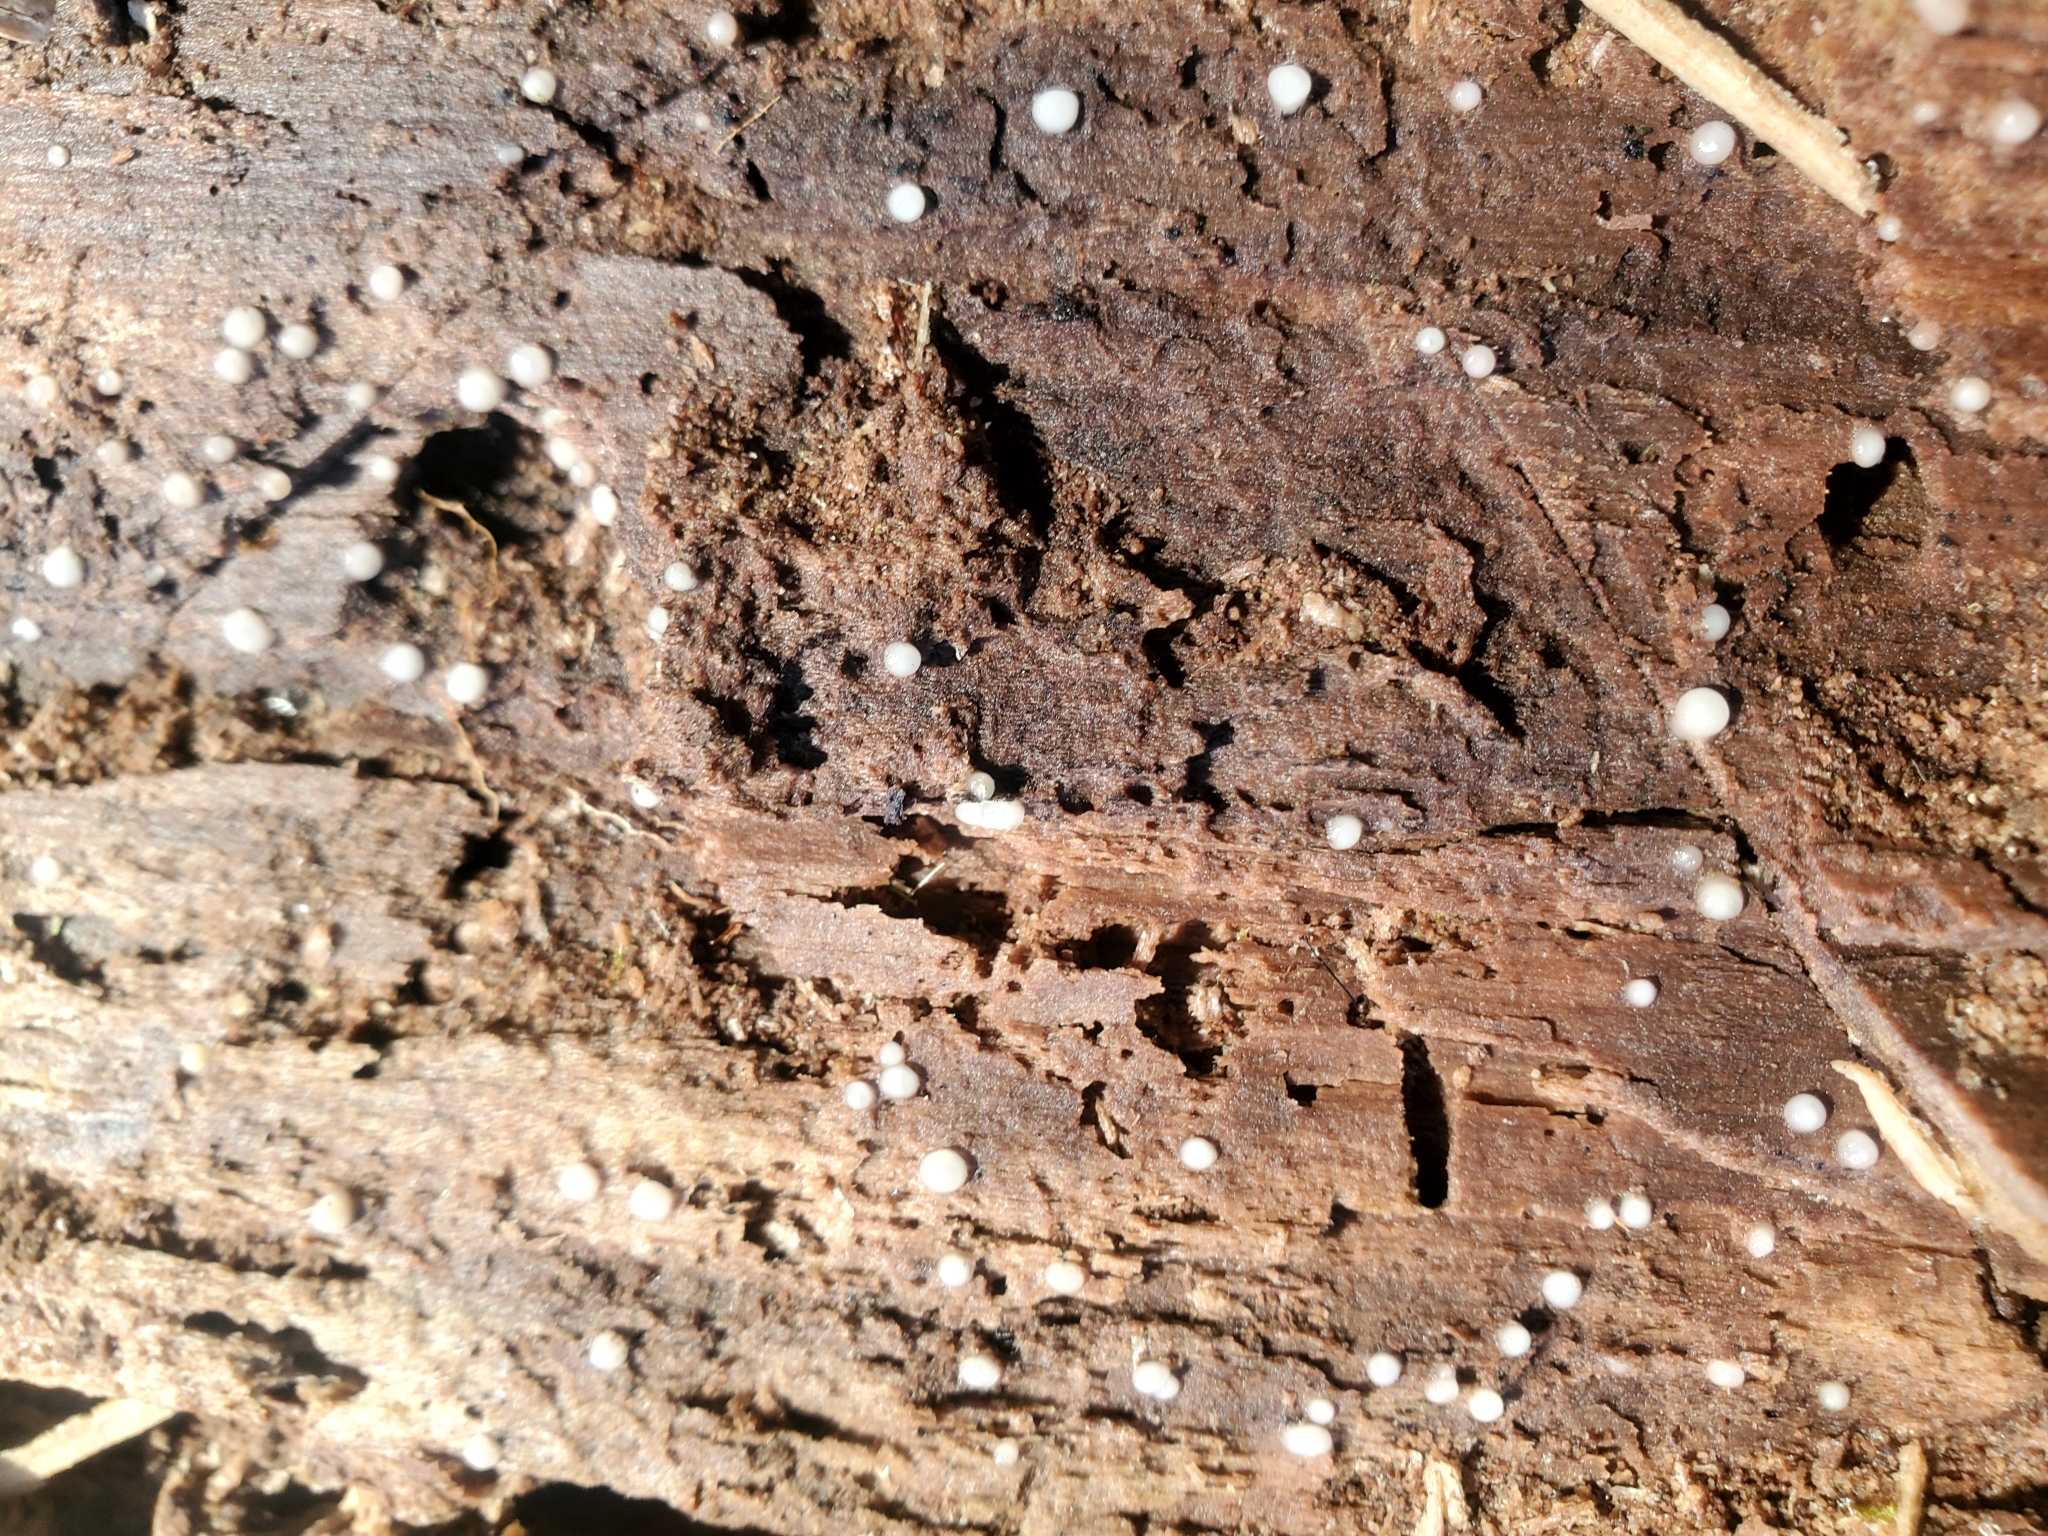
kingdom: Fungi
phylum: Basidiomycota
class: Atractiellomycetes
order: Atractiellales
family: Phleogenaceae
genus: Helicogloea
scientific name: Helicogloea compressa
